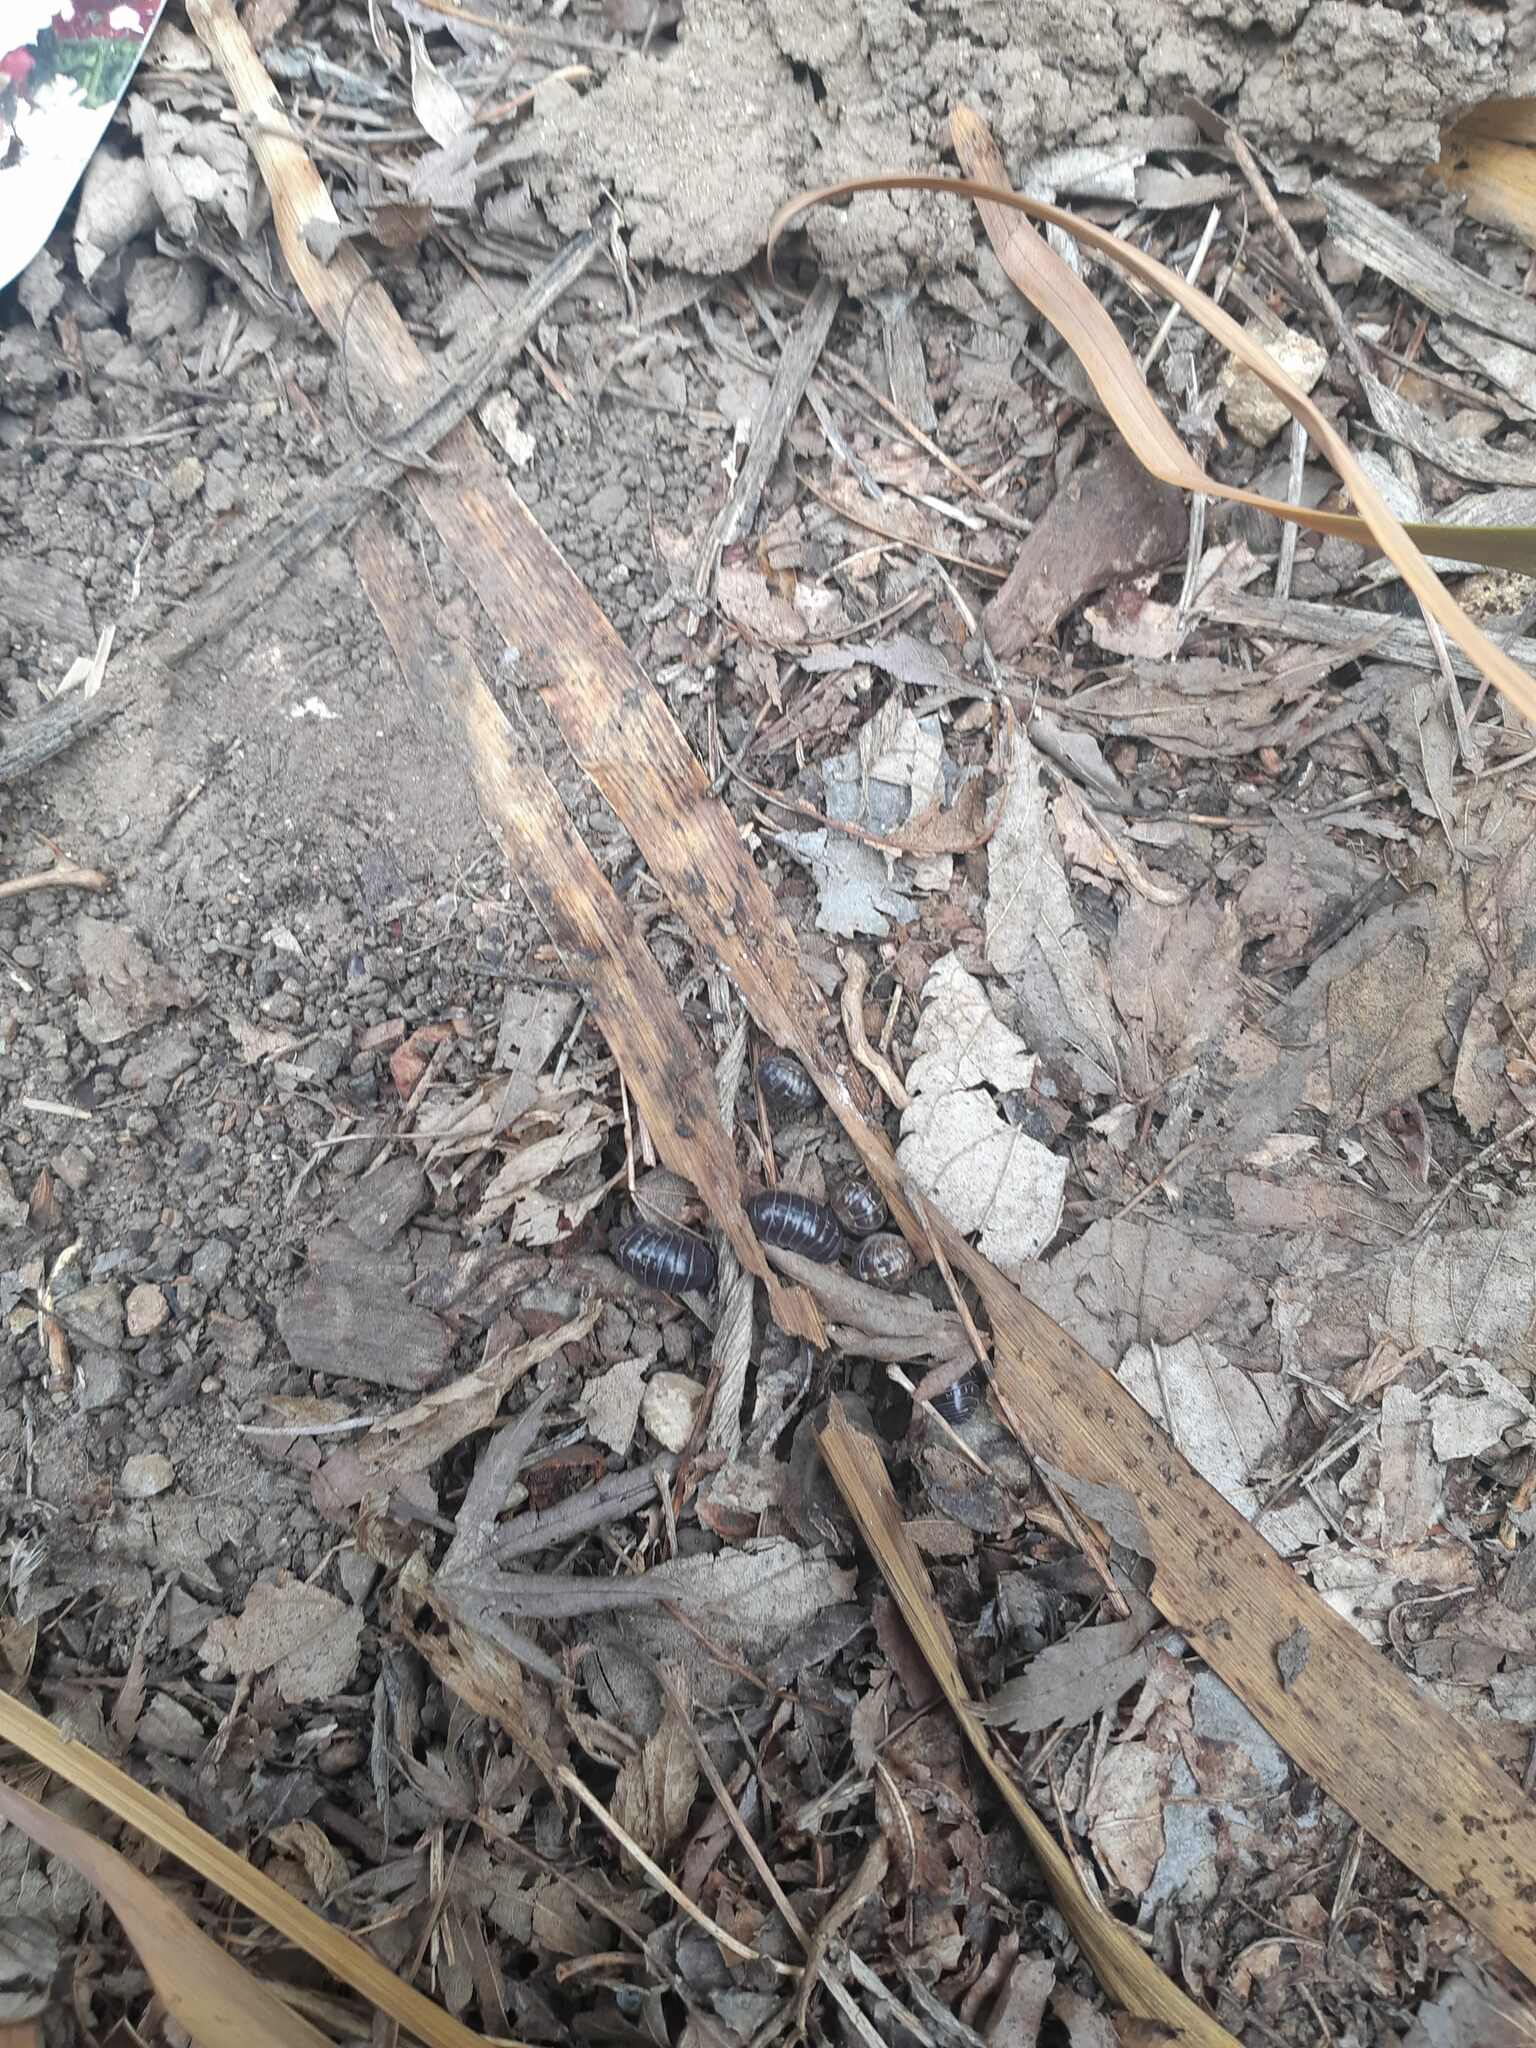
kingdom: Animalia
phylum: Arthropoda
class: Malacostraca
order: Isopoda
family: Armadillidiidae
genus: Armadillidium
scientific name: Armadillidium vulgare
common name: Common pill woodlouse
